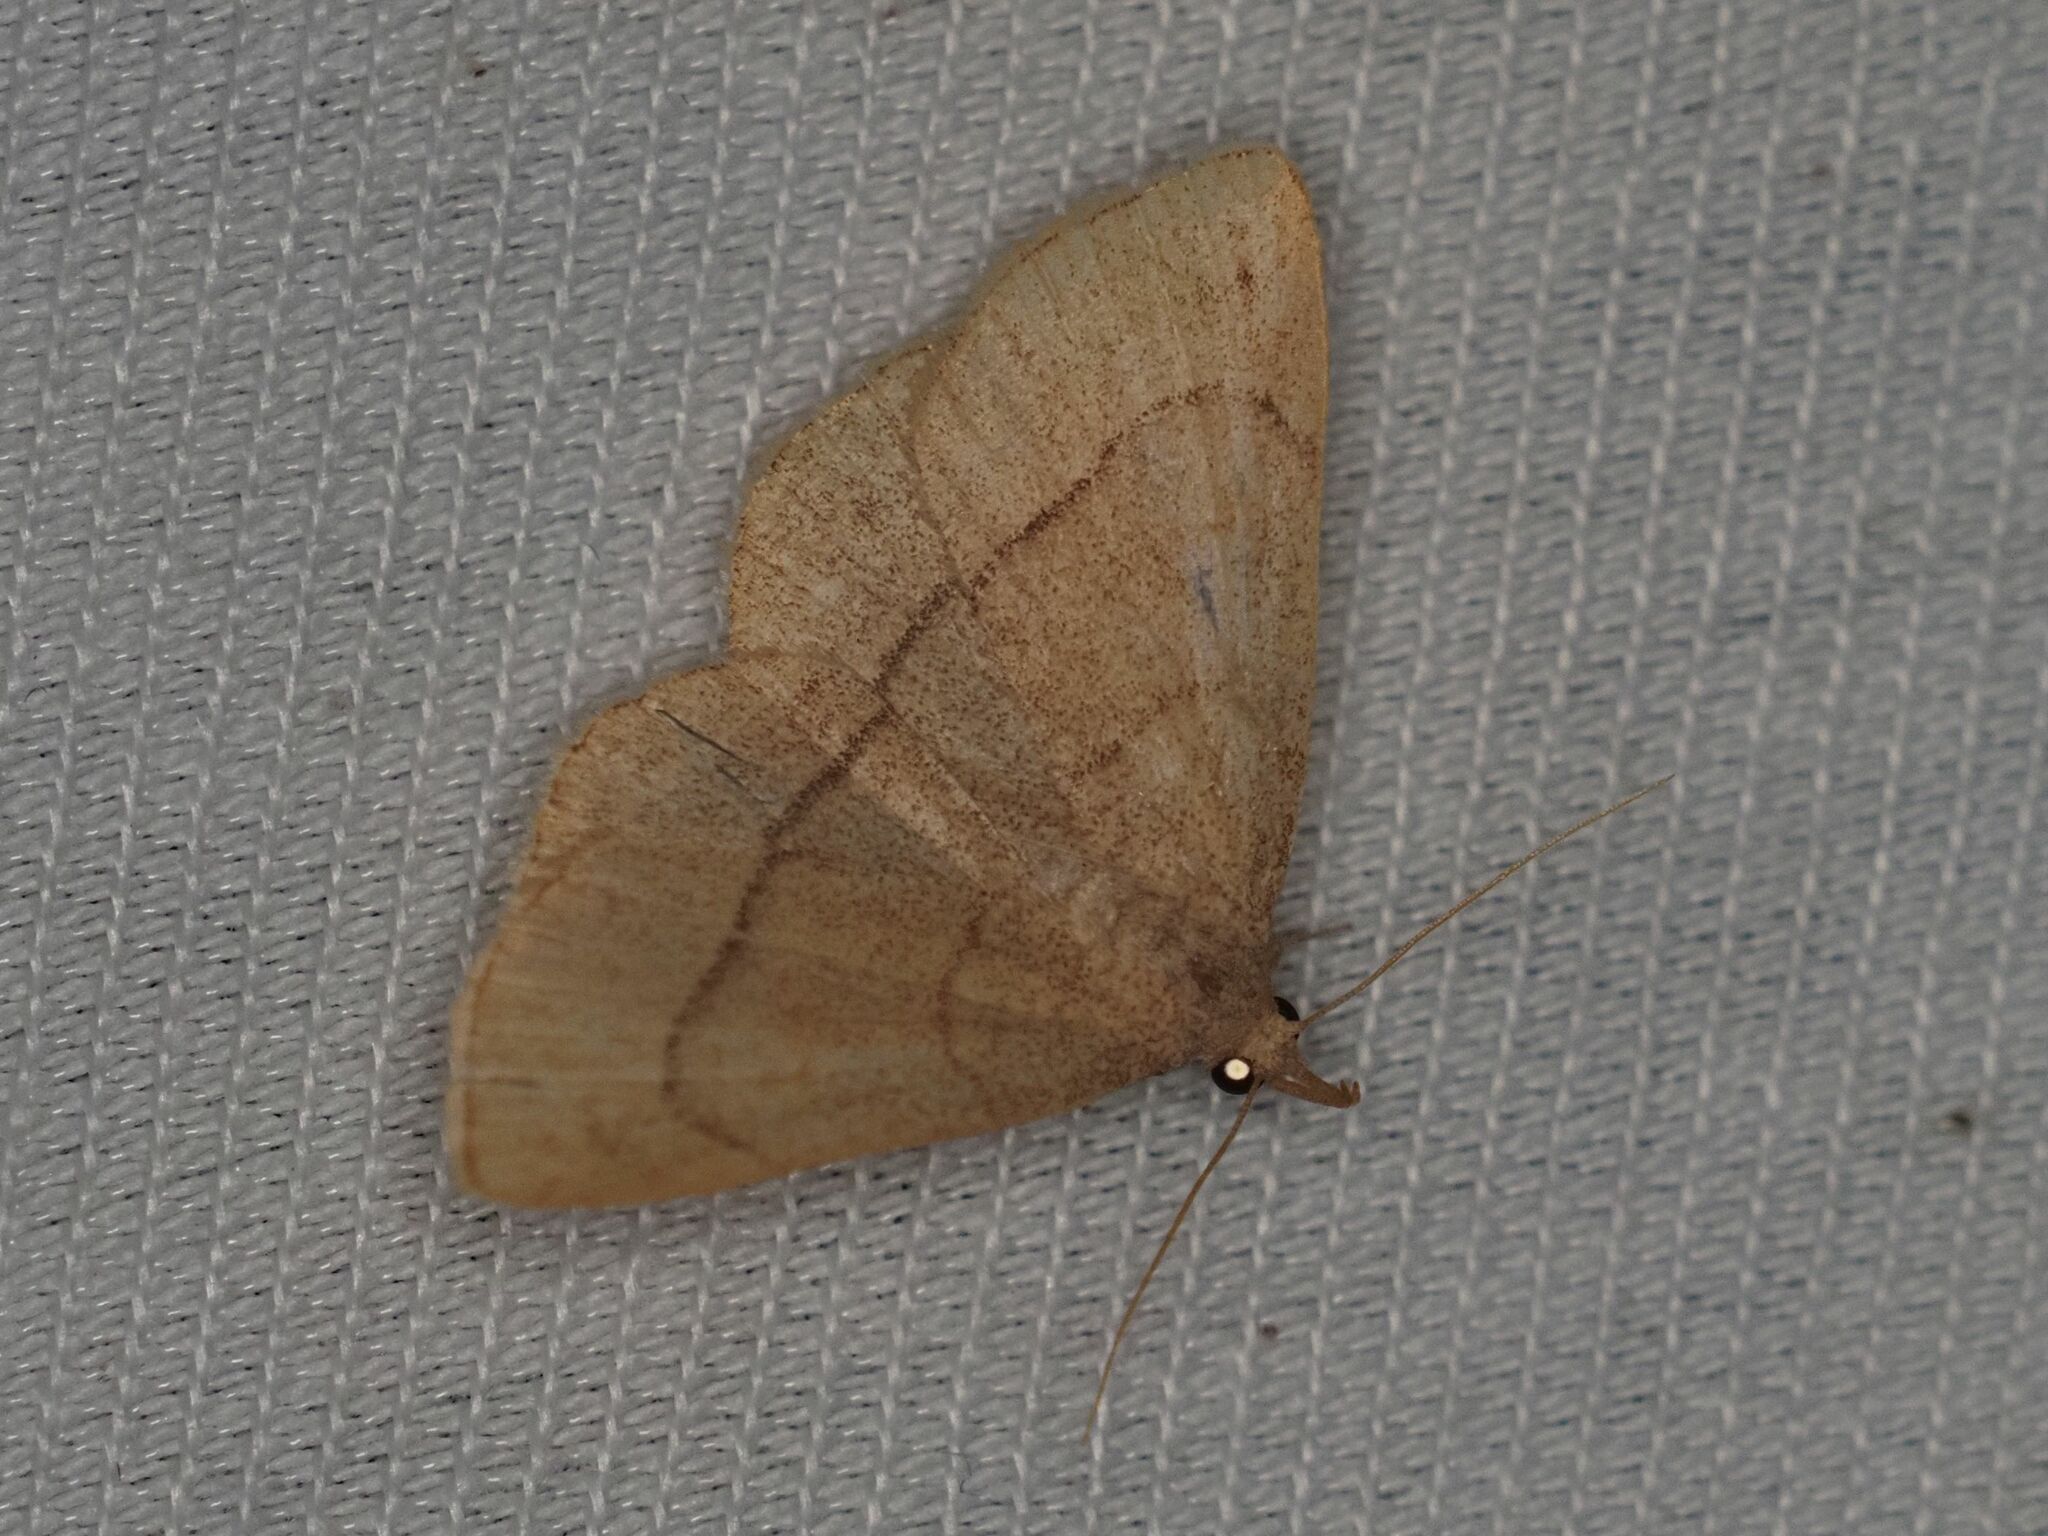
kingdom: Animalia
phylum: Arthropoda
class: Insecta
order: Lepidoptera
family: Erebidae
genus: Paracolax
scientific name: Paracolax tristalis
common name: Clay fan-foot
